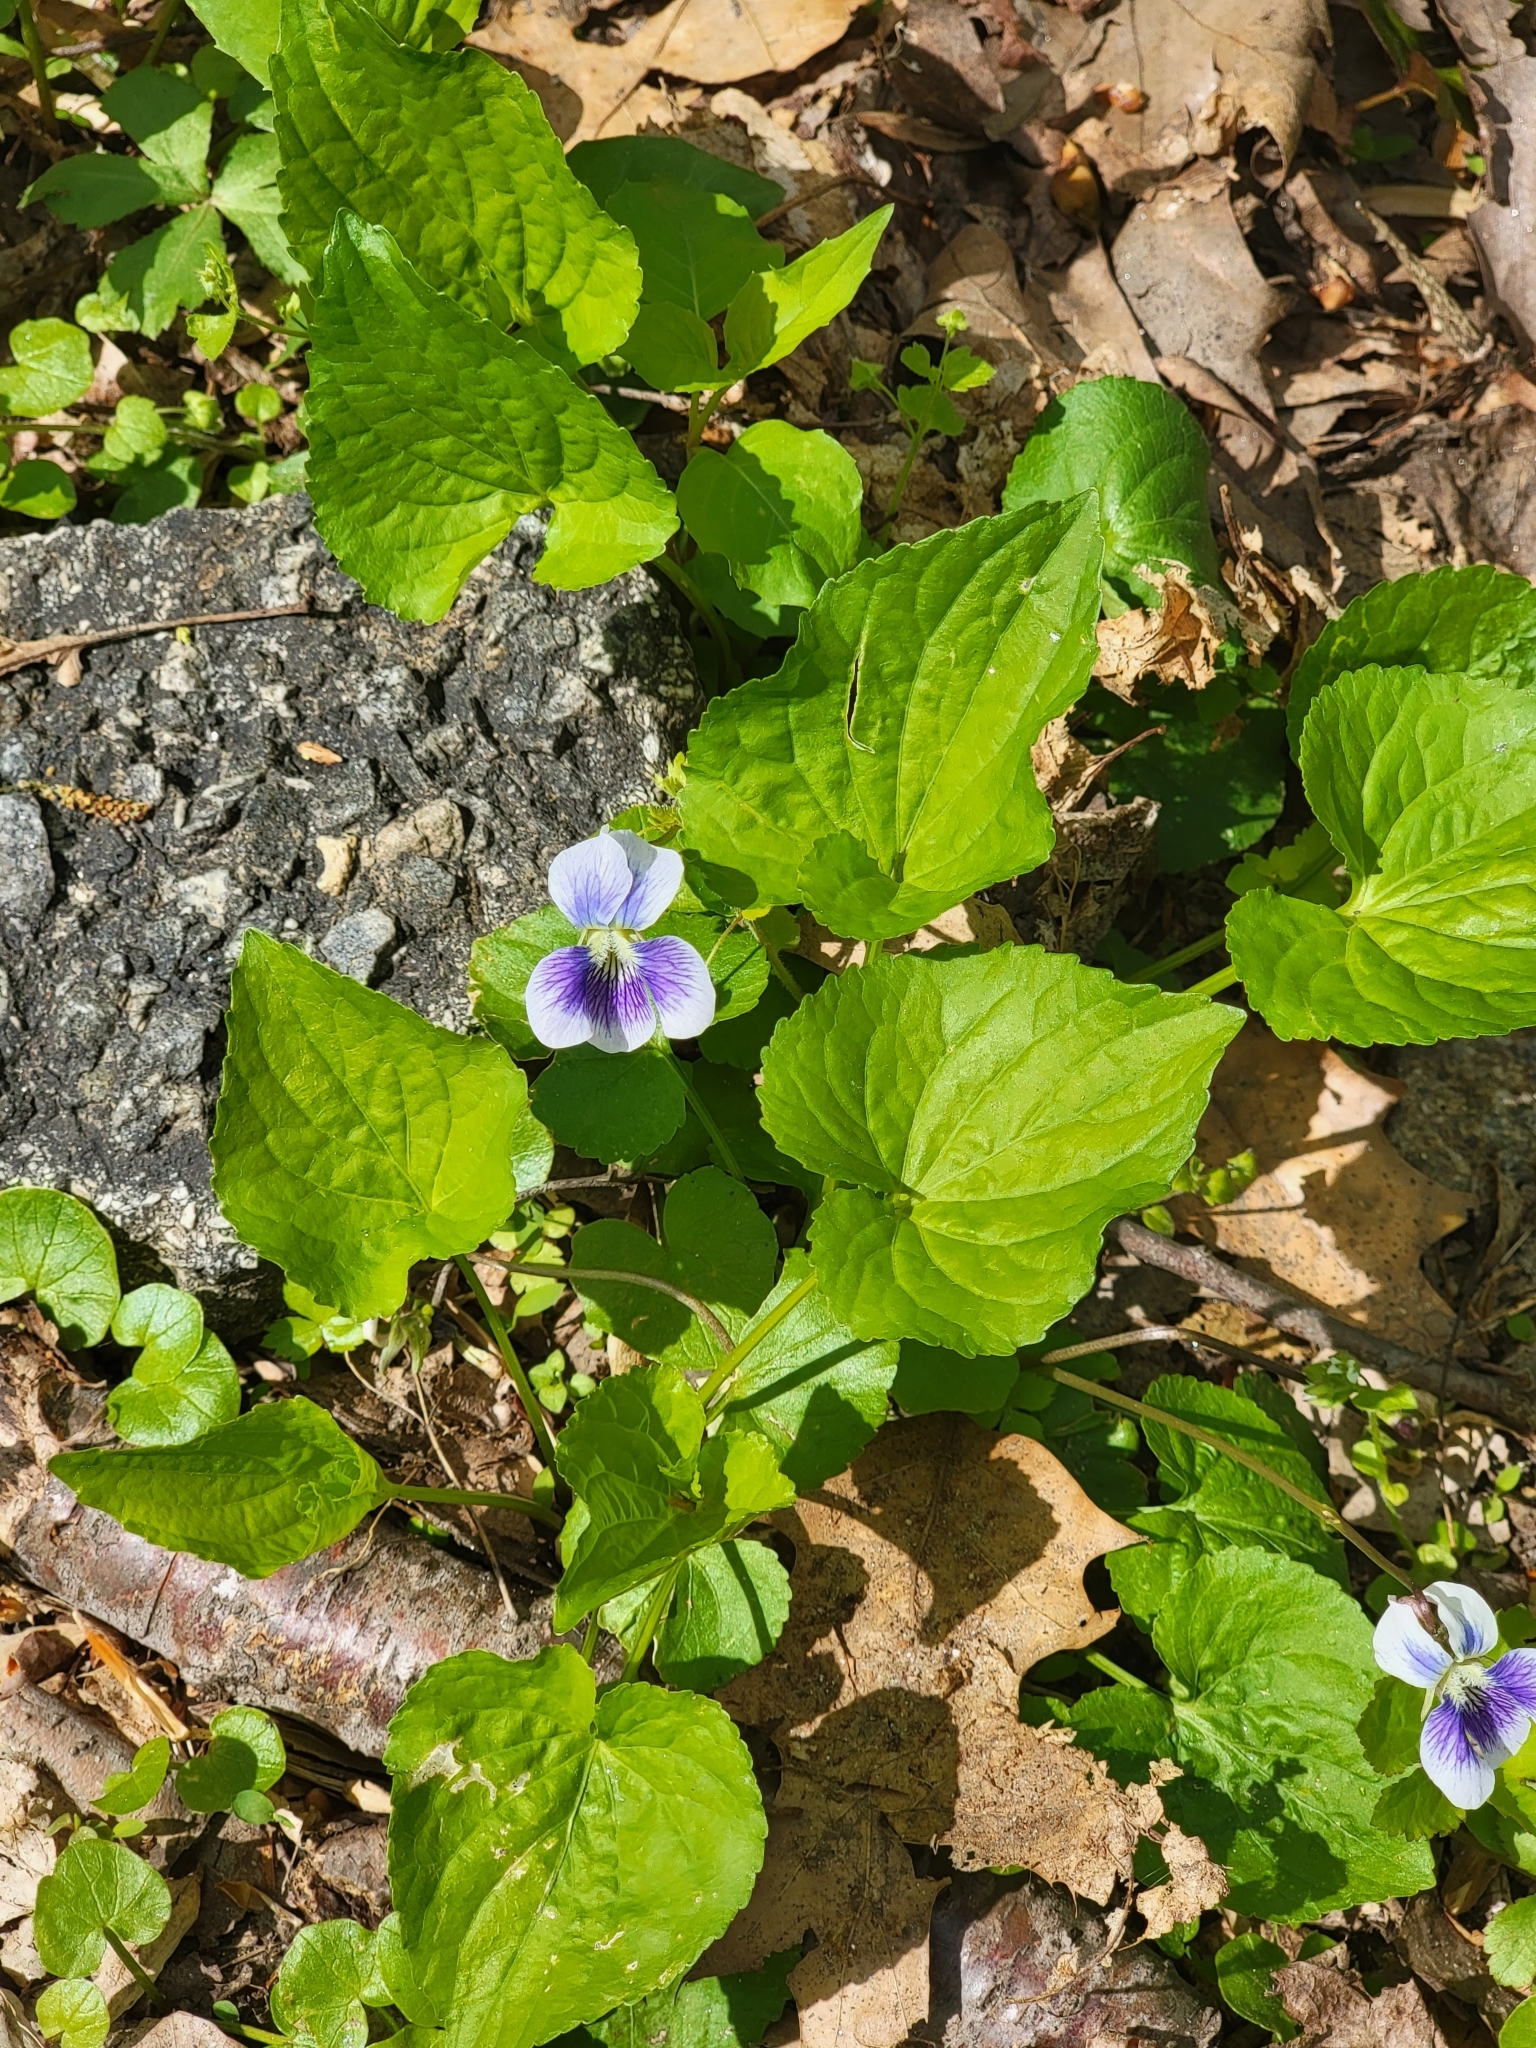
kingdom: Plantae
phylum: Tracheophyta
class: Magnoliopsida
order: Malpighiales
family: Violaceae
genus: Viola
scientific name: Viola sororia
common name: Dooryard violet
